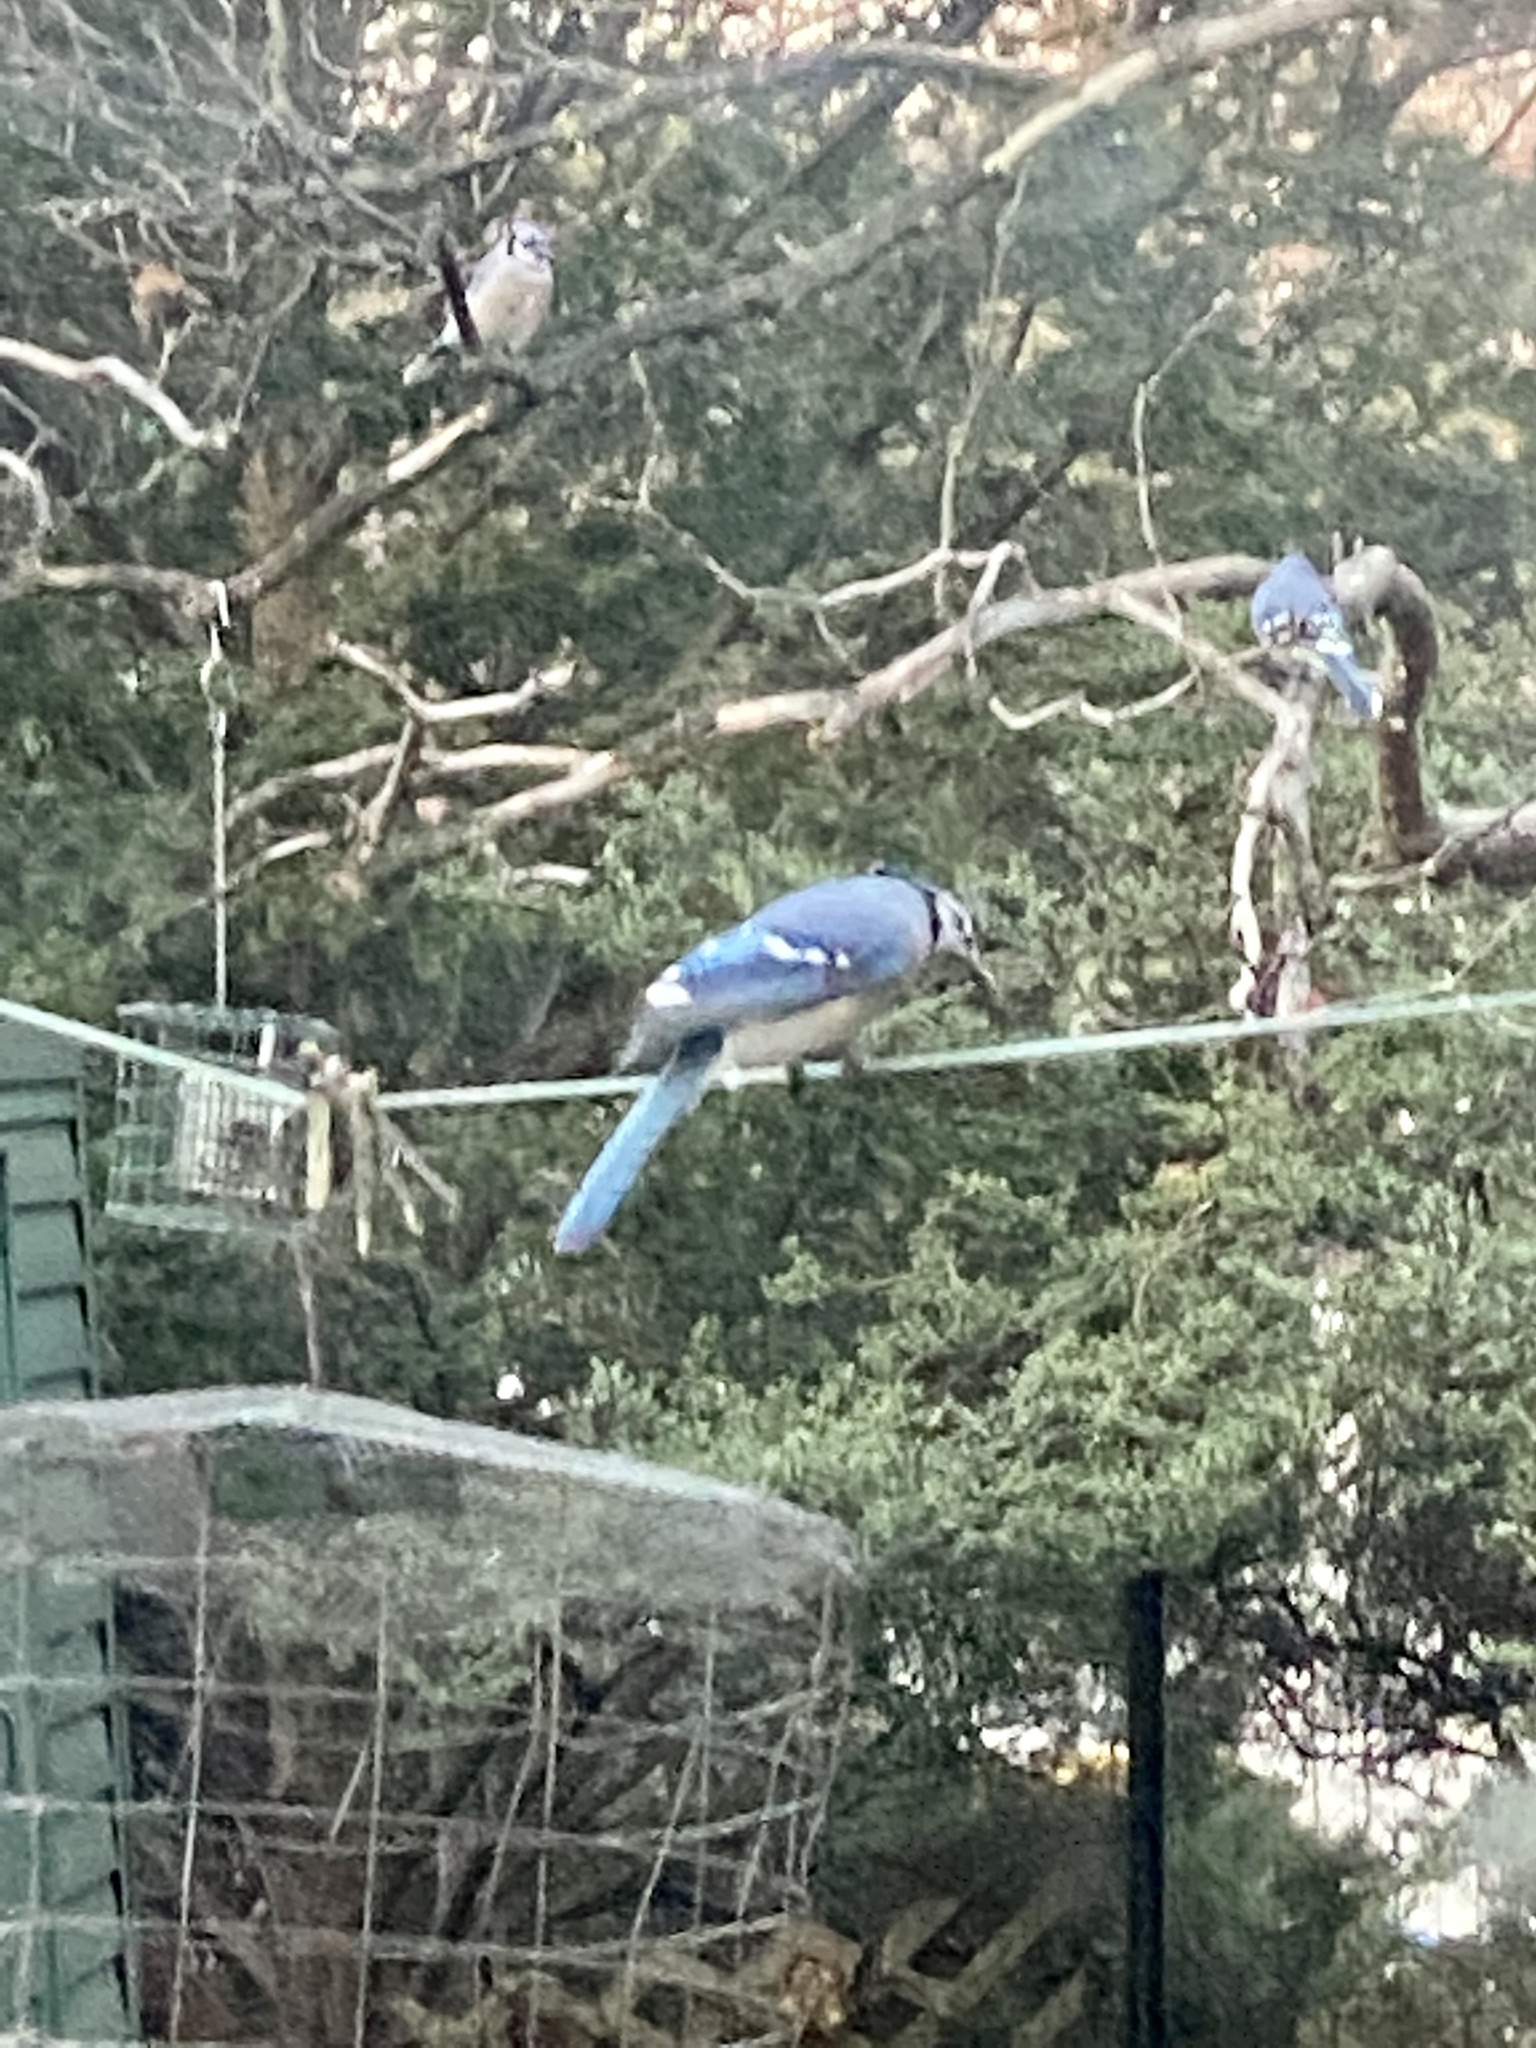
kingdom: Animalia
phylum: Chordata
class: Aves
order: Passeriformes
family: Corvidae
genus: Cyanocitta
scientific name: Cyanocitta cristata
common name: Blue jay
